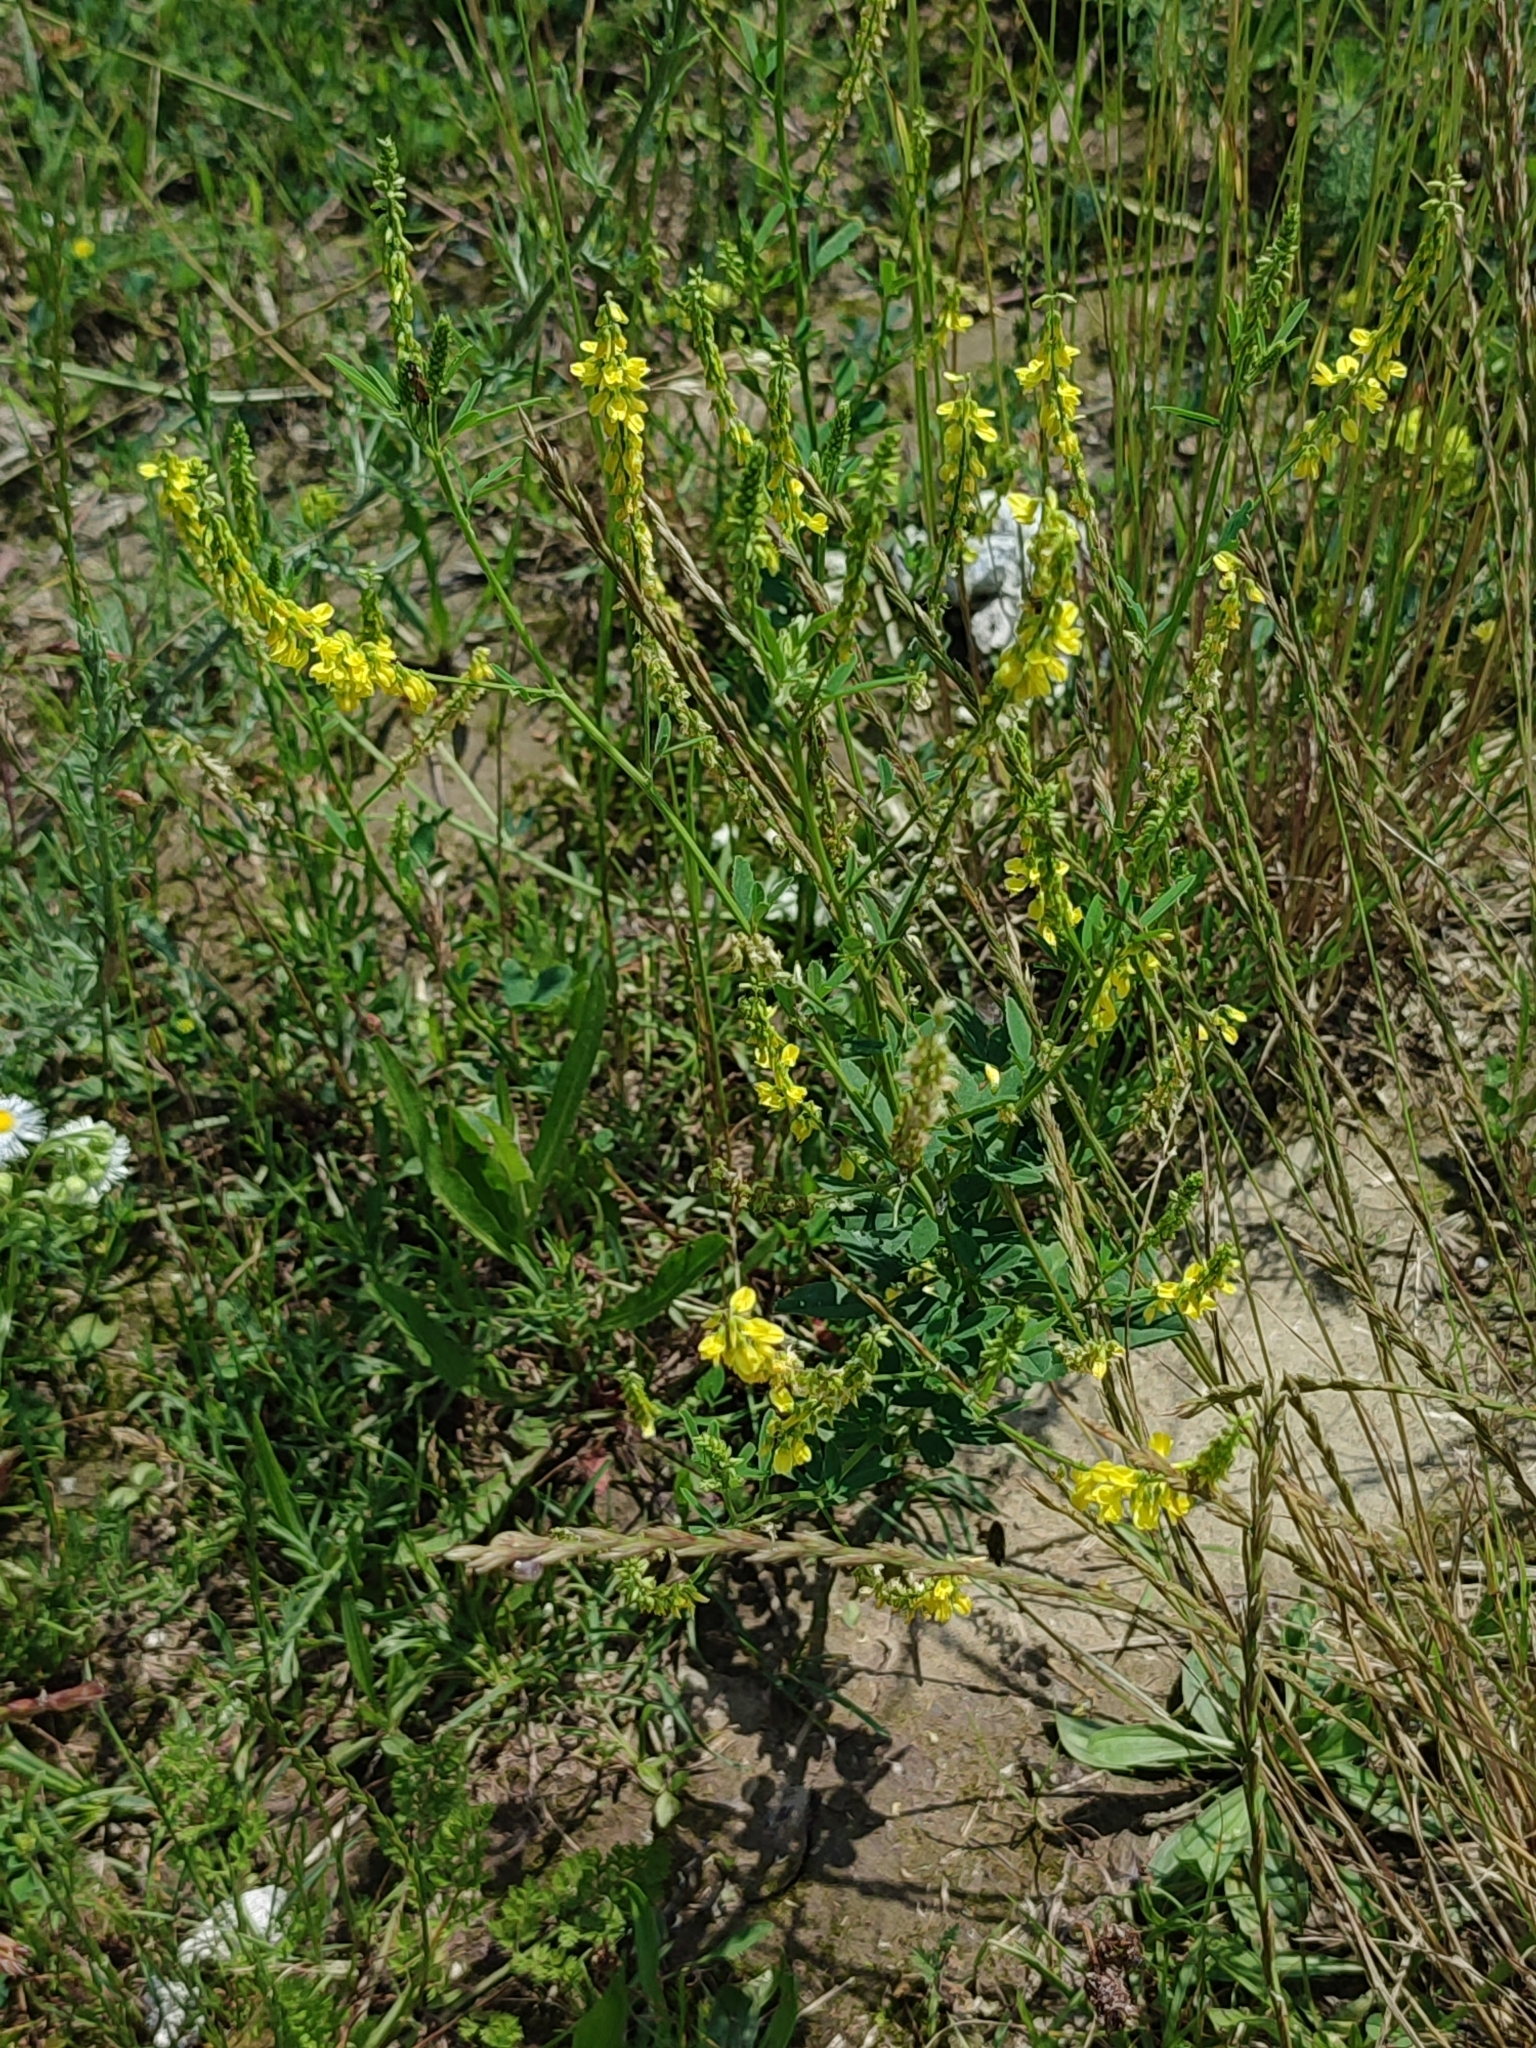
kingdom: Plantae
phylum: Tracheophyta
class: Magnoliopsida
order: Fabales
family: Fabaceae
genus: Melilotus
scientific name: Melilotus officinalis
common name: Sweetclover
